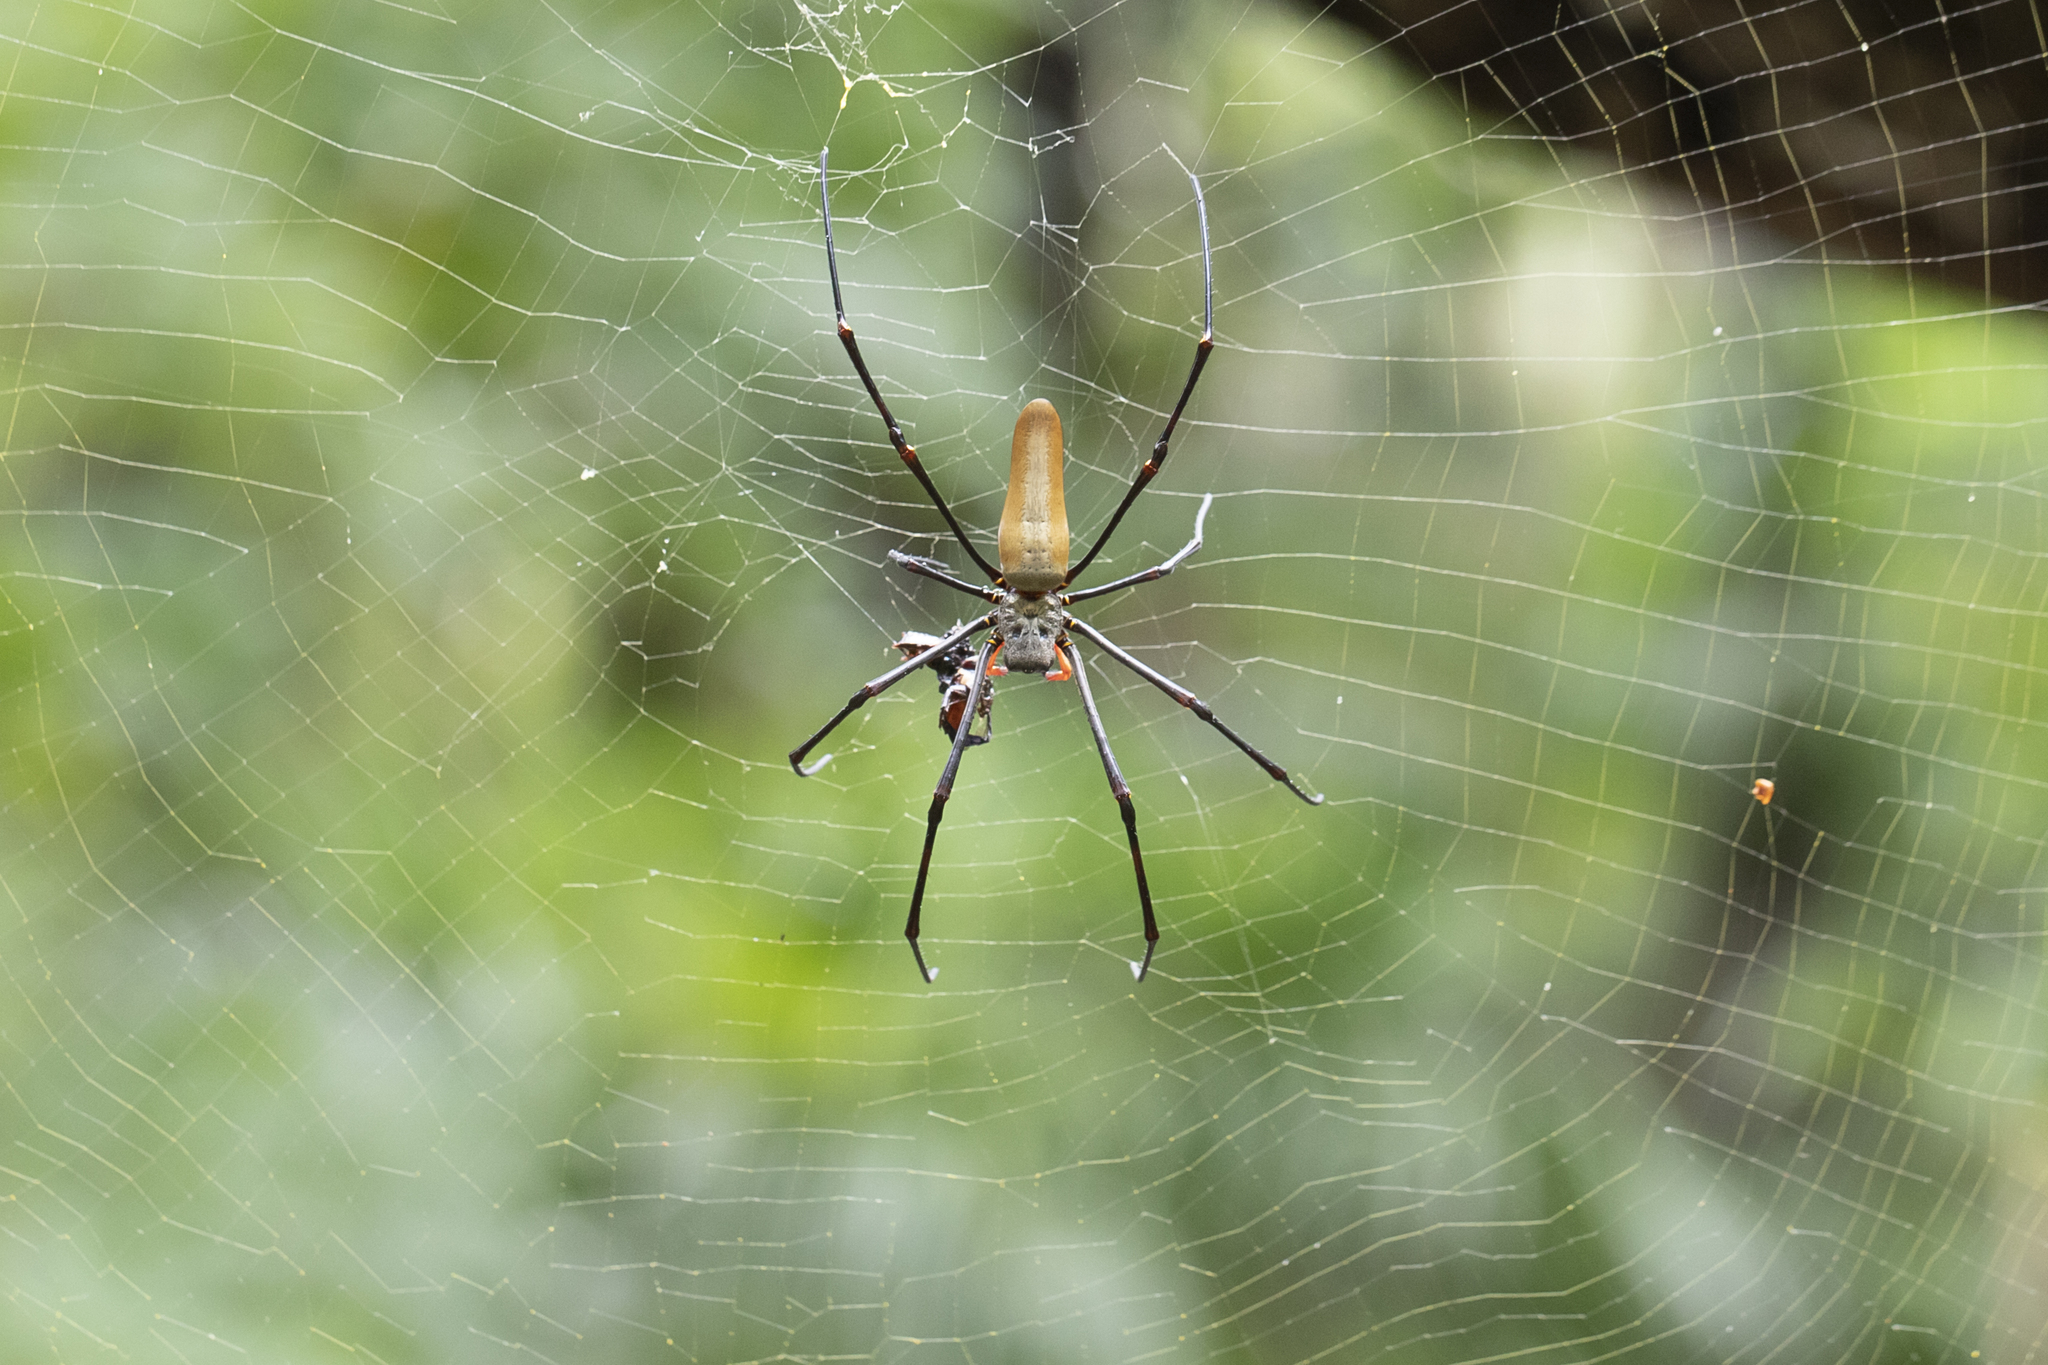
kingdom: Animalia
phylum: Arthropoda
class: Arachnida
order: Araneae
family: Araneidae
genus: Nephila
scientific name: Nephila pilipes
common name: Giant golden orb weaver
